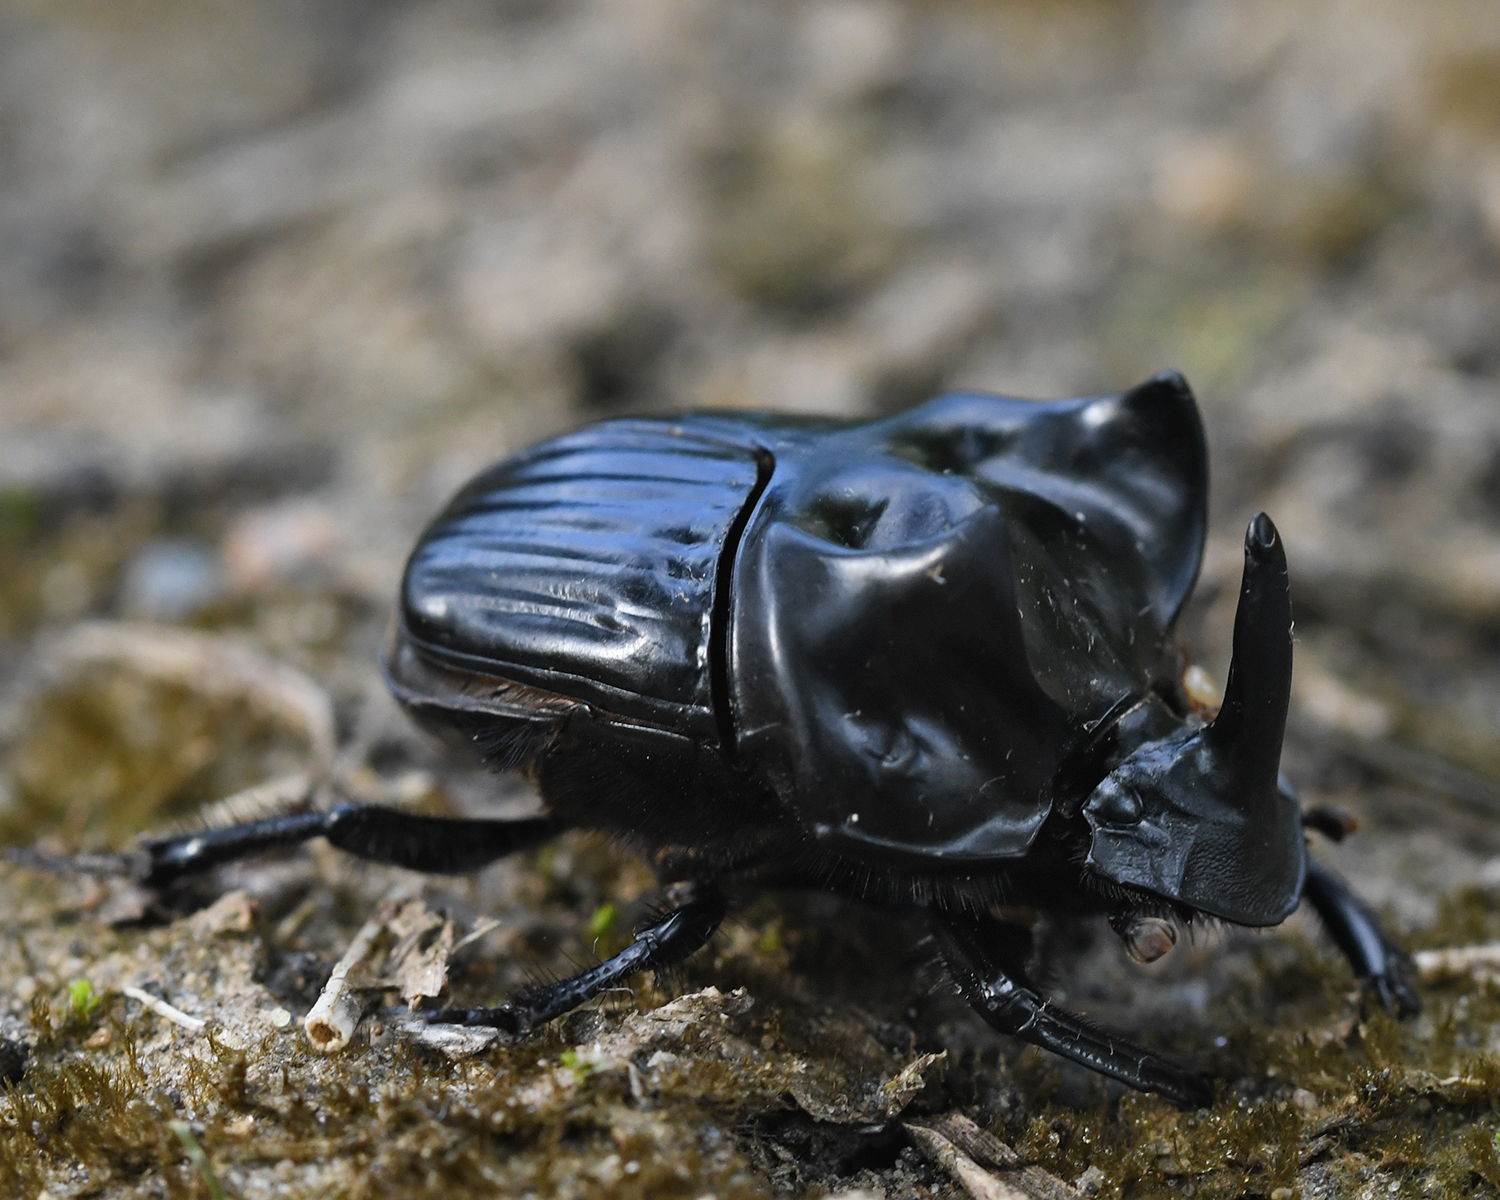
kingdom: Animalia
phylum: Chordata
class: Amphibia
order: Anura
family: Hylidae
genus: Scinax
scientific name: Scinax ruber
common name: Red snouted treefrog
